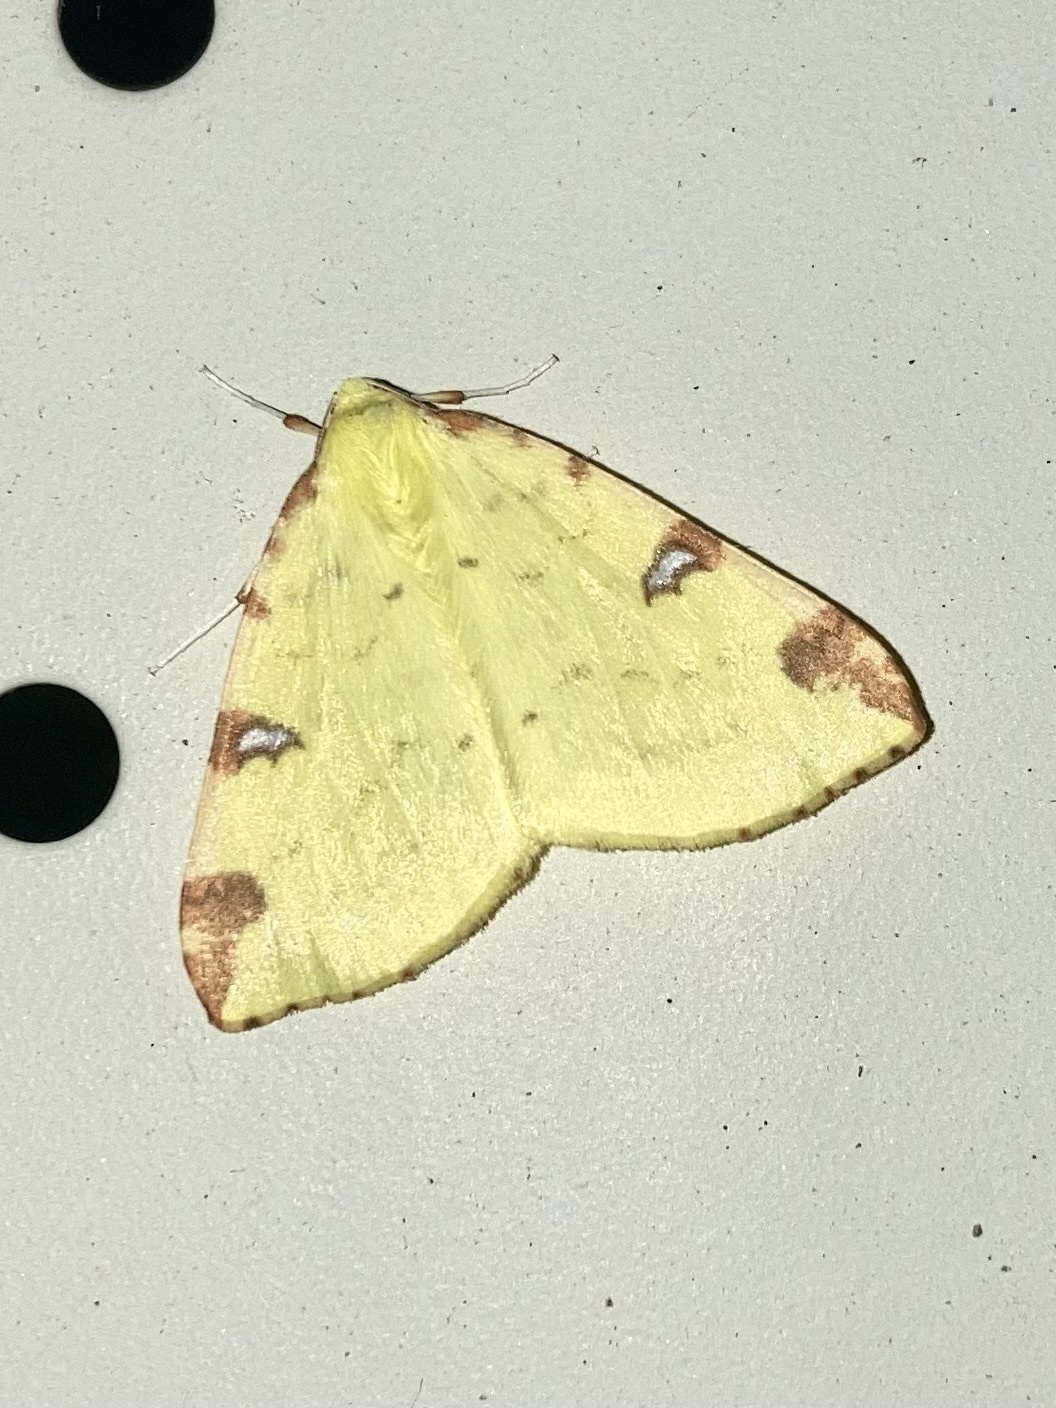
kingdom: Animalia
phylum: Arthropoda
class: Insecta
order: Lepidoptera
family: Geometridae
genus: Opisthograptis
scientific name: Opisthograptis luteolata
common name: Brimstone moth
